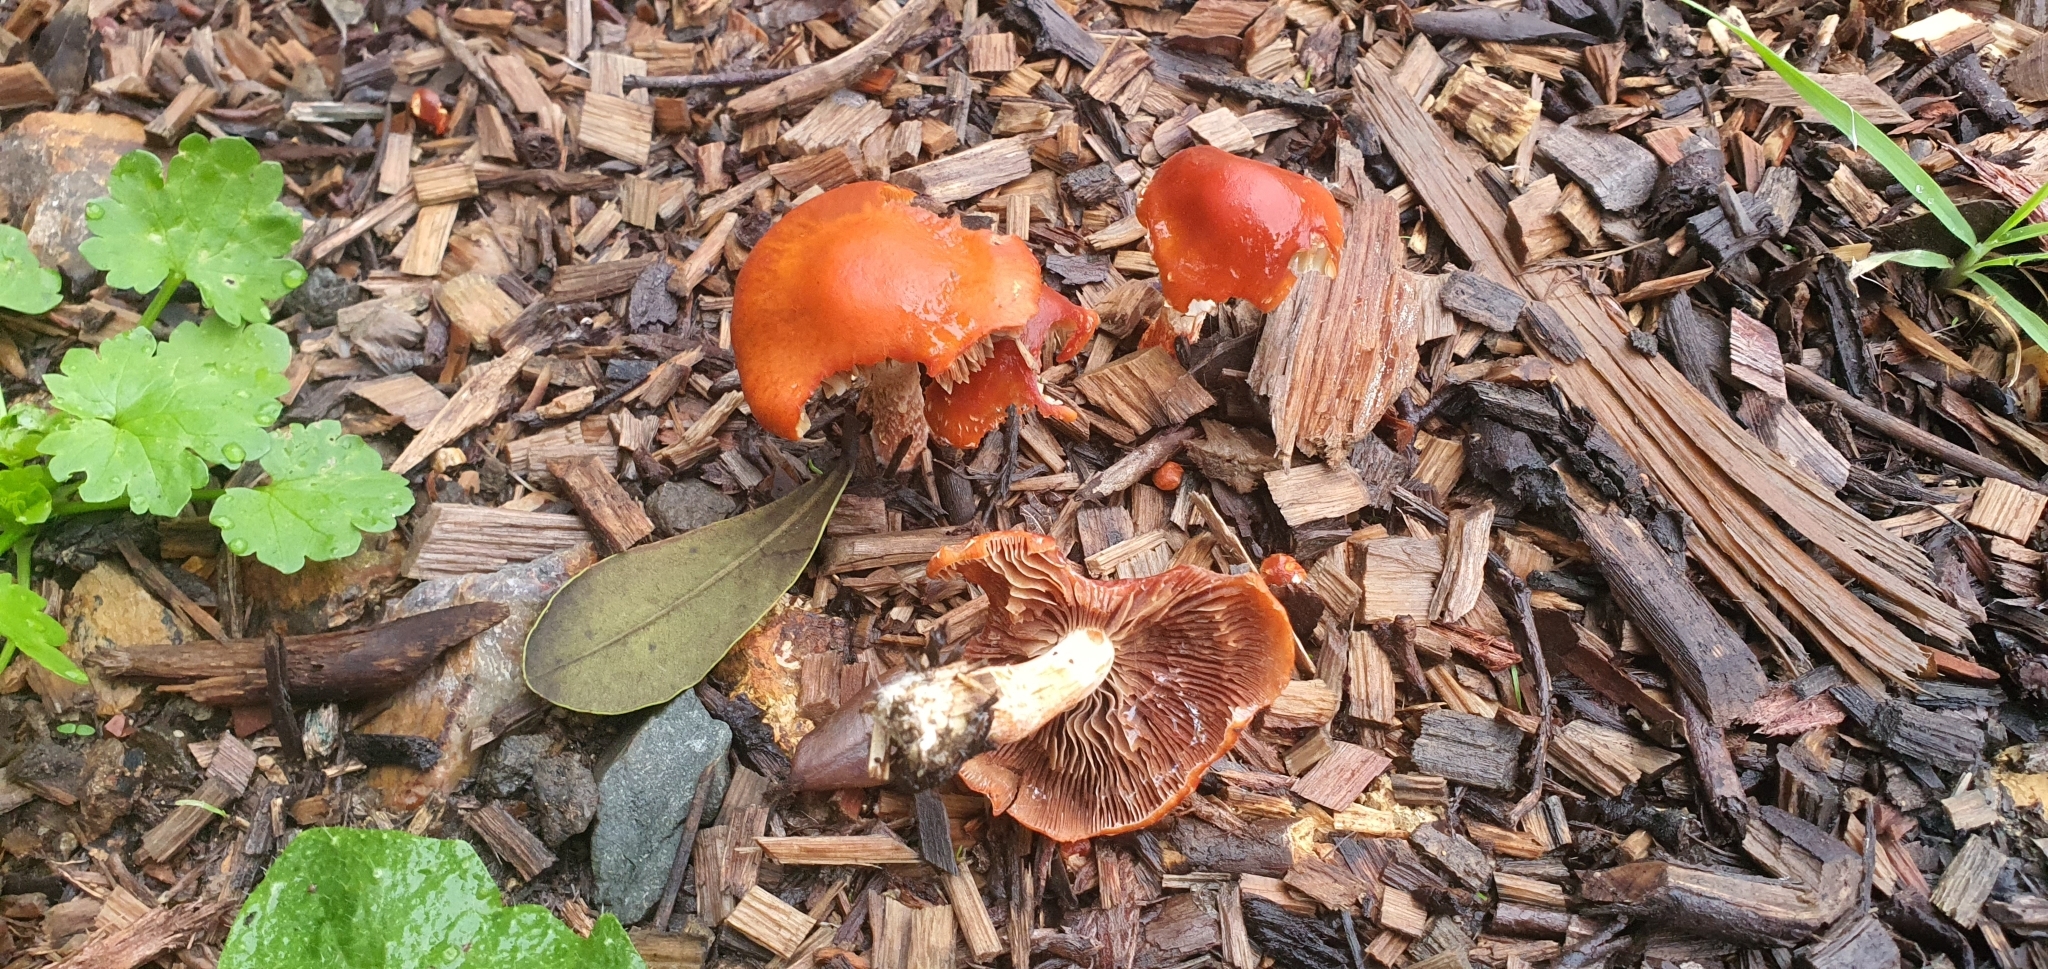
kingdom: Fungi
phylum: Basidiomycota
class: Agaricomycetes
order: Agaricales
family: Strophariaceae
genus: Leratiomyces
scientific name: Leratiomyces ceres
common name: Redlead roundhead
